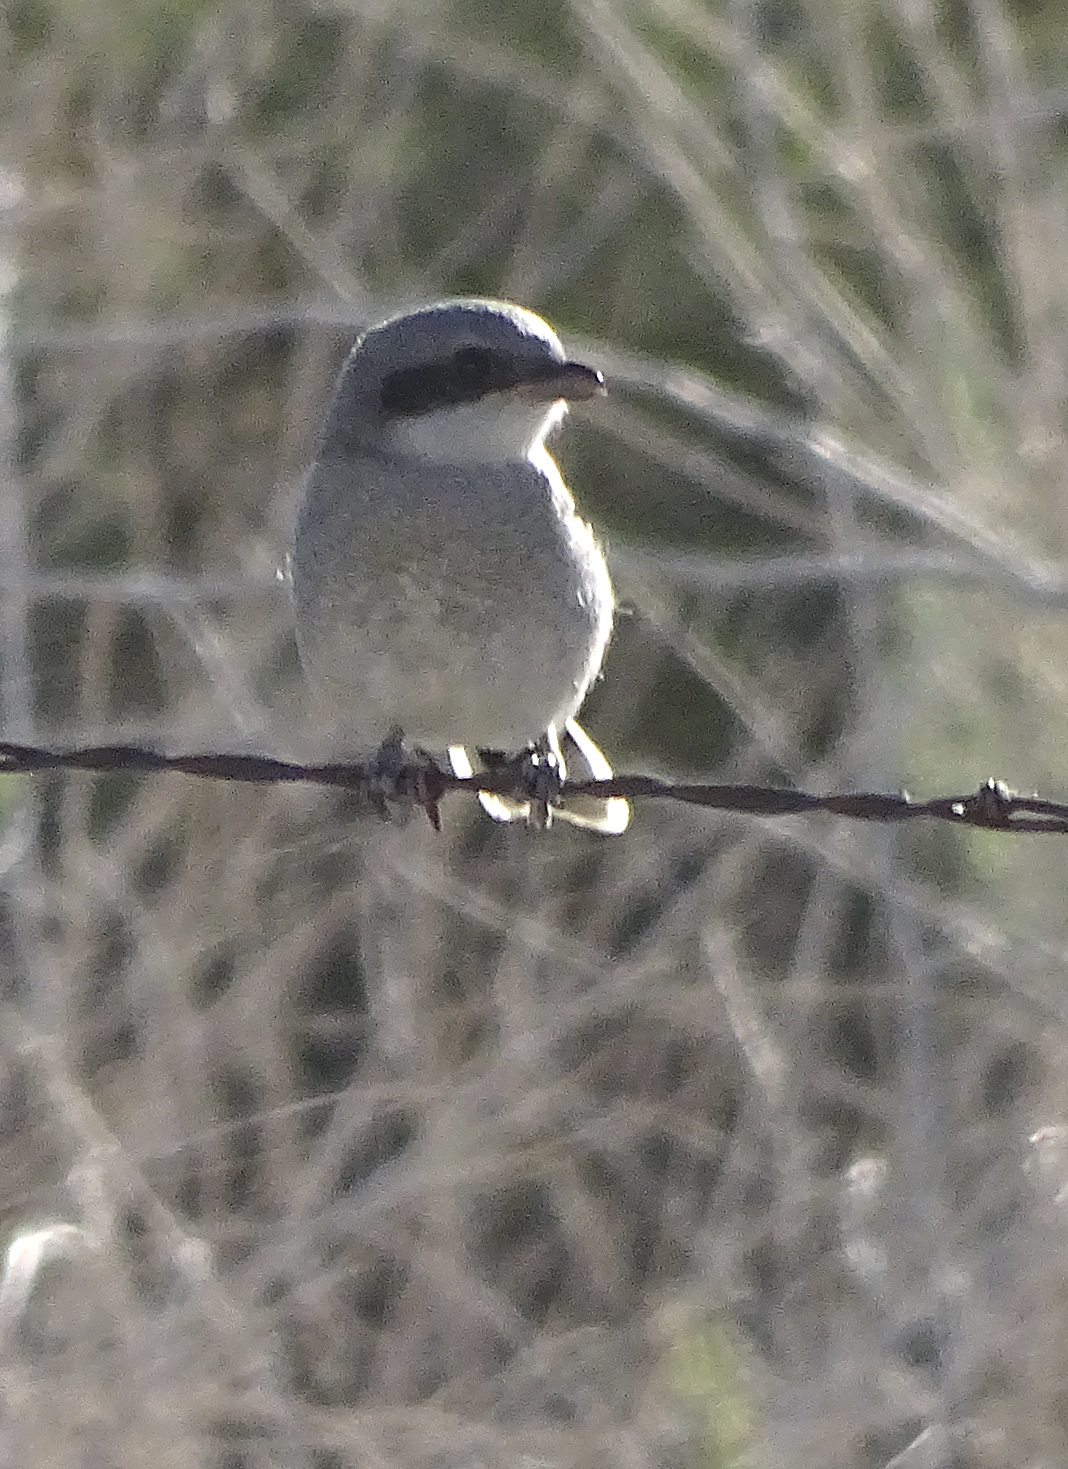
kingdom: Animalia
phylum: Chordata
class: Aves
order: Passeriformes
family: Laniidae
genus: Lanius
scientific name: Lanius ludovicianus
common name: Loggerhead shrike
